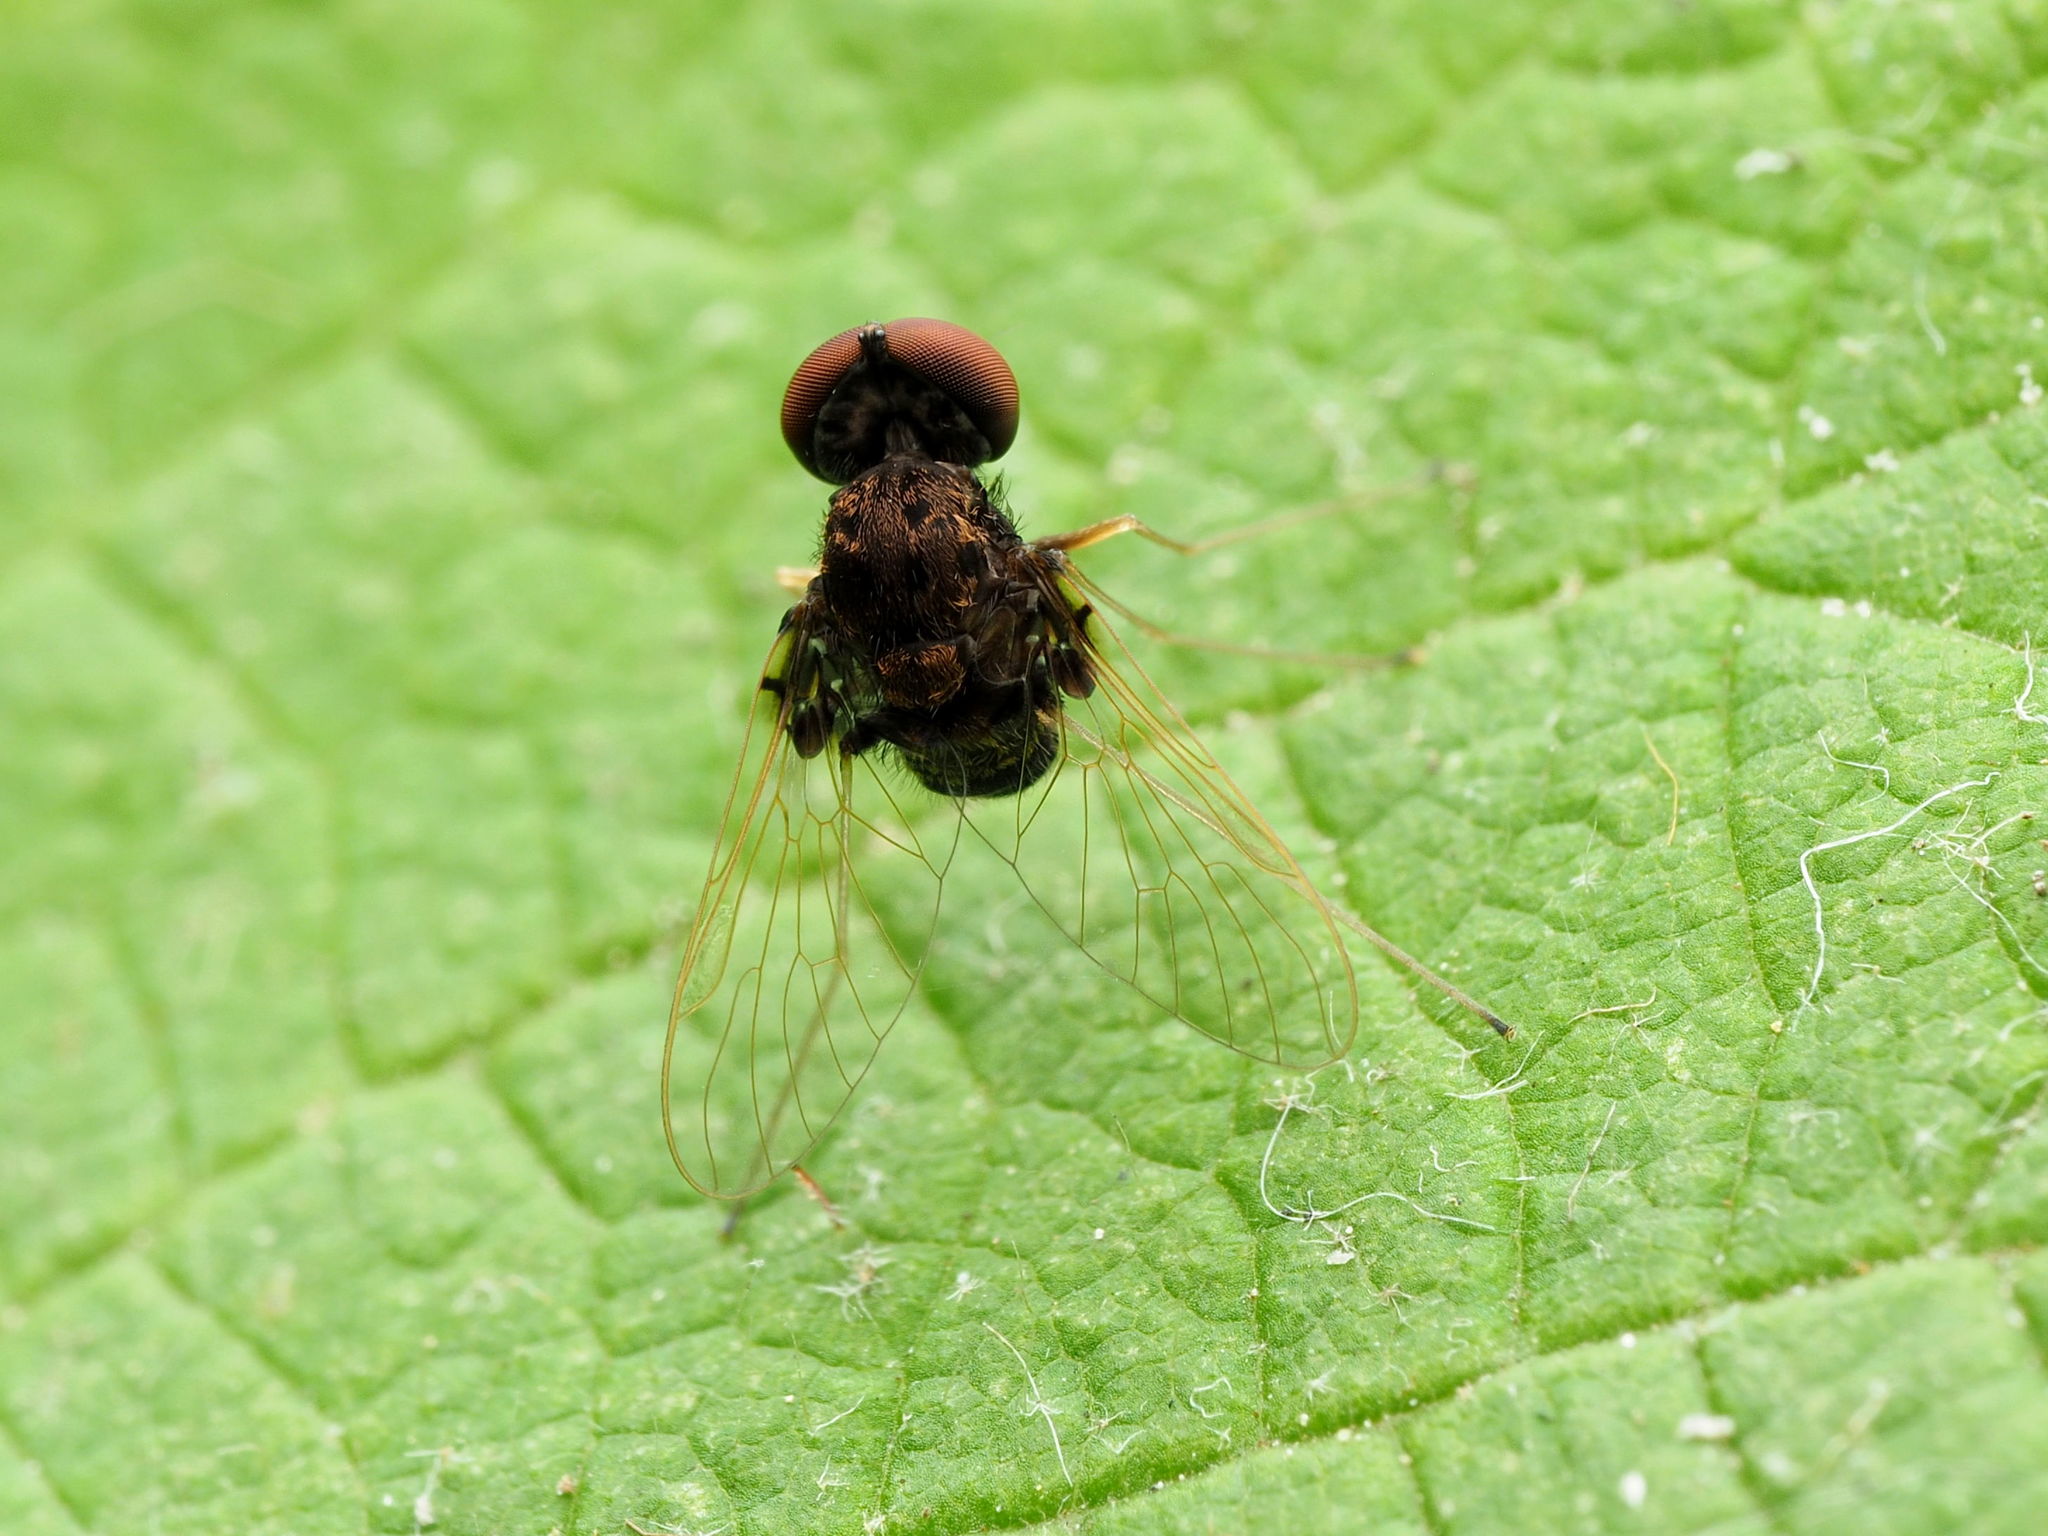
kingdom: Animalia
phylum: Arthropoda
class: Insecta
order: Diptera
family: Rhagionidae
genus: Chrysopilus
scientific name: Chrysopilus basilaris
